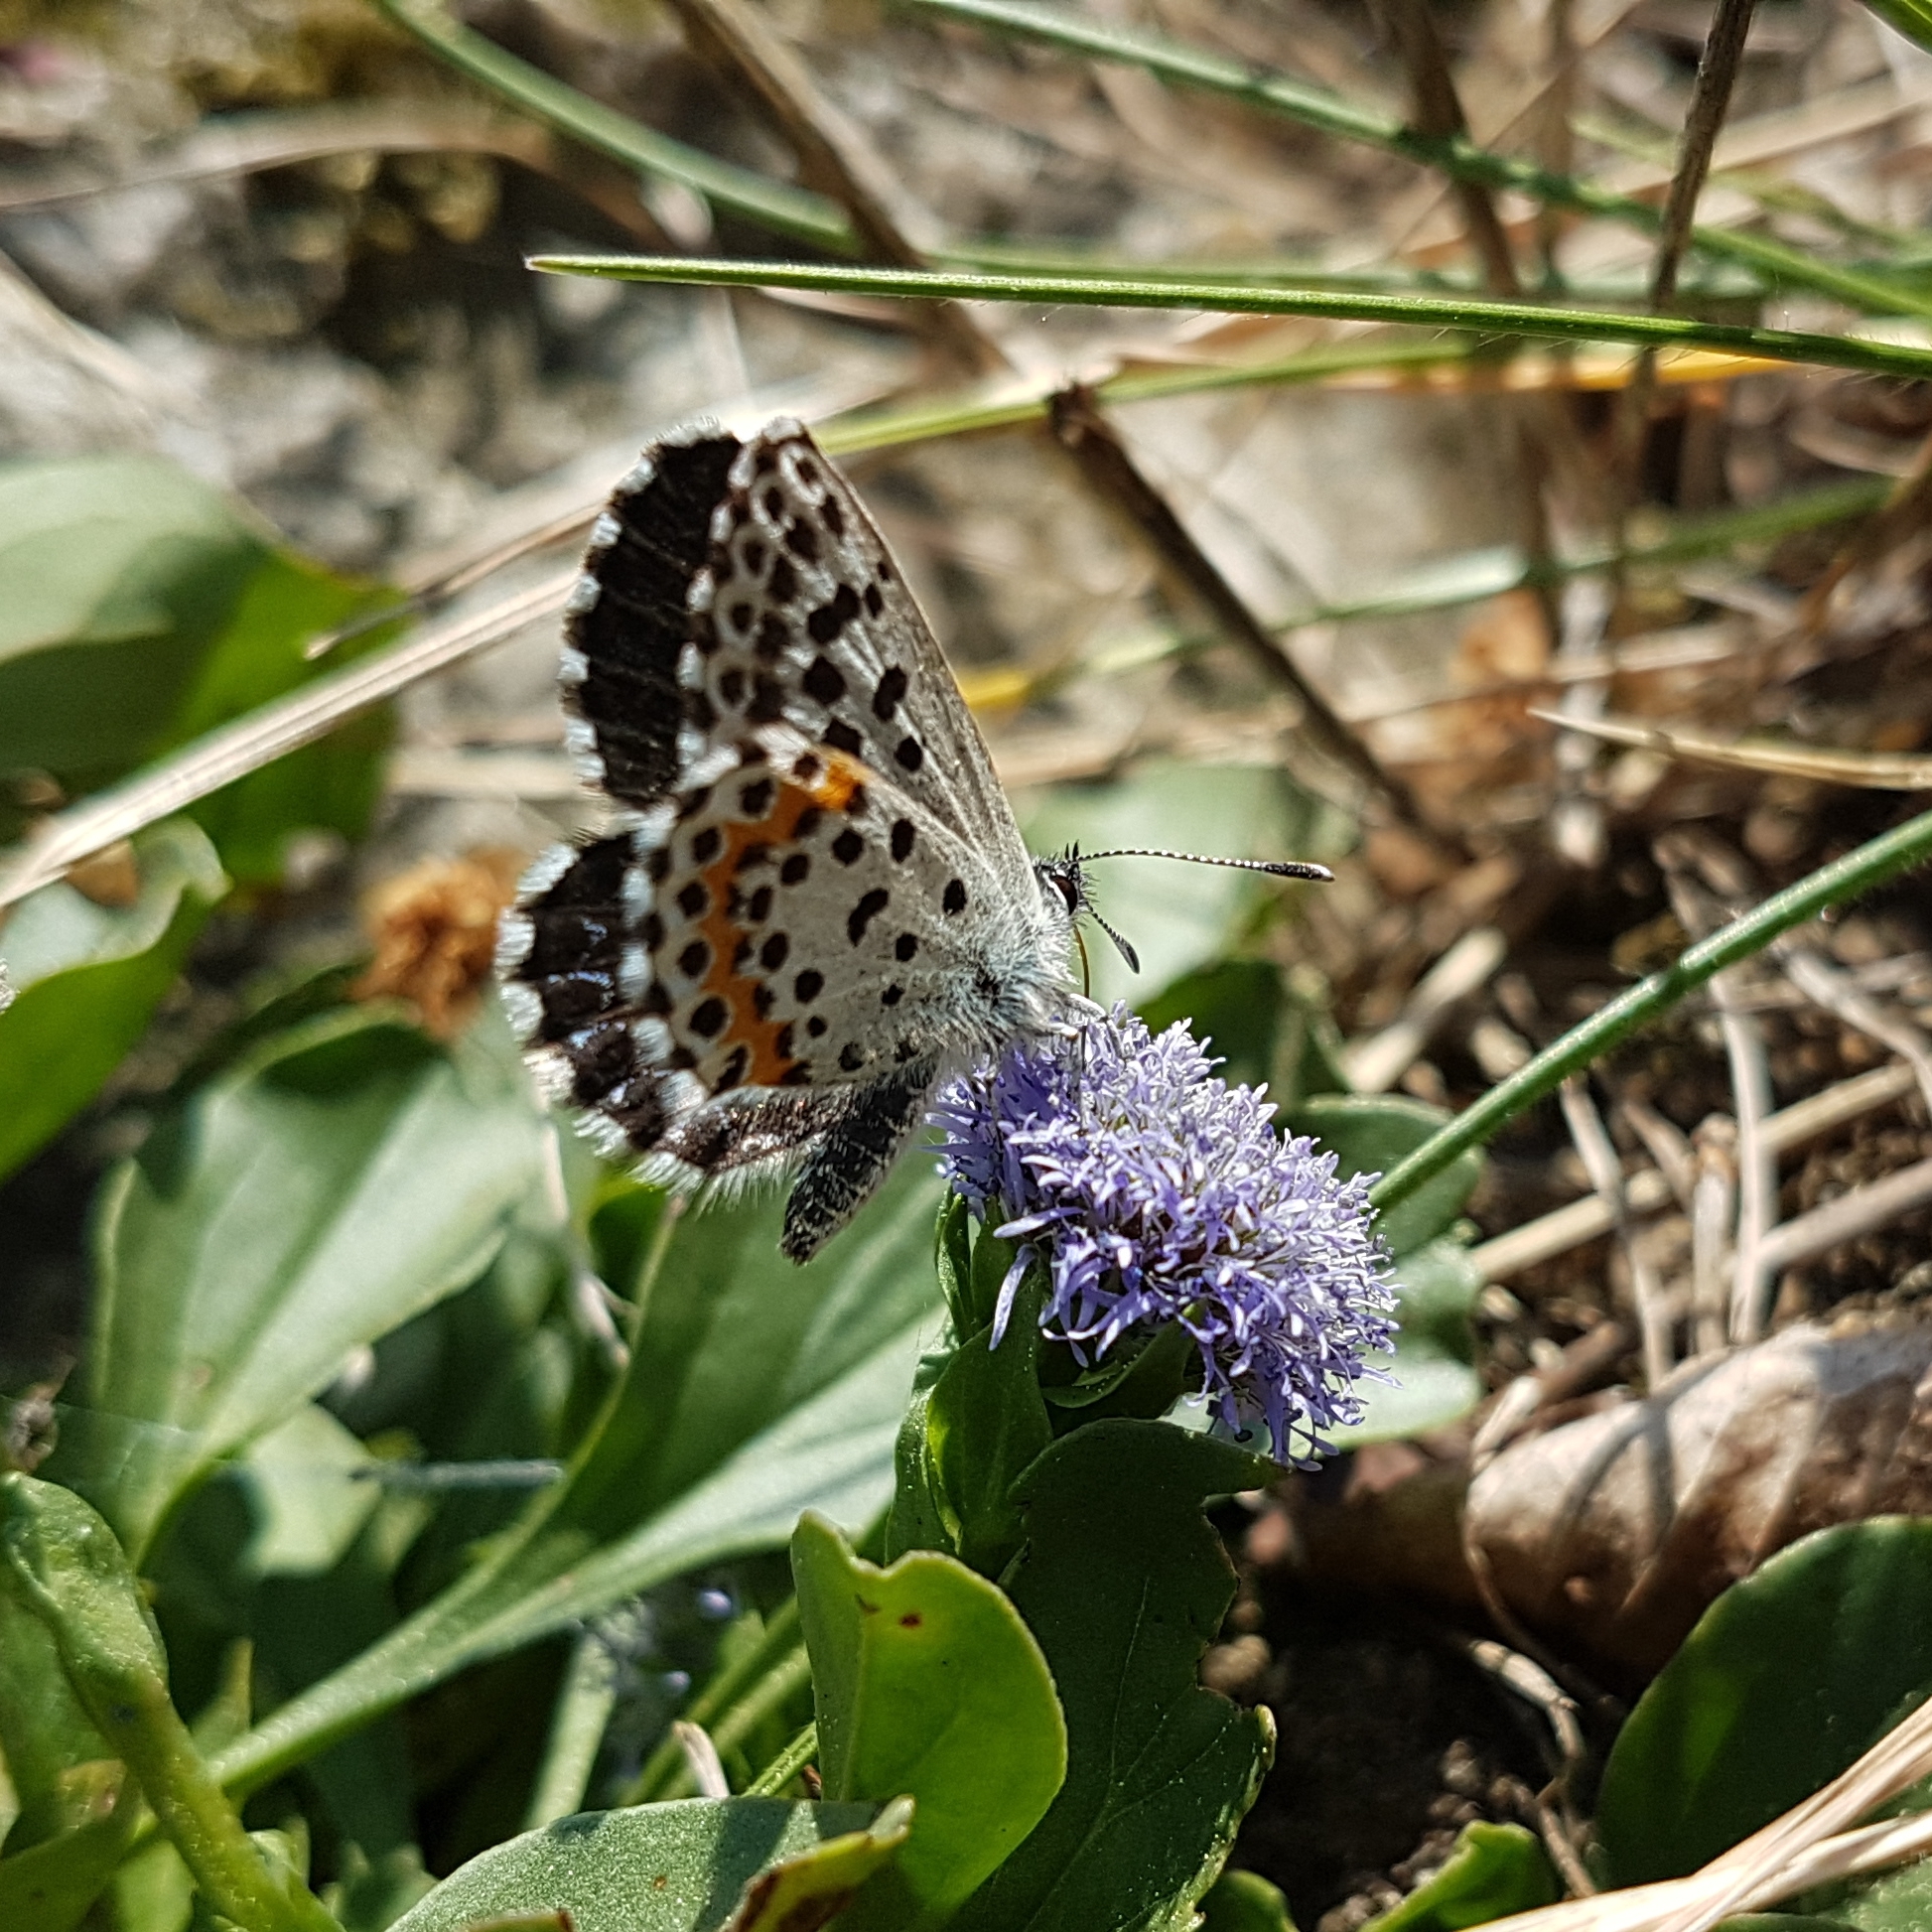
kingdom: Animalia
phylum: Arthropoda
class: Insecta
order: Lepidoptera
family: Lycaenidae
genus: Scolitantides
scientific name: Scolitantides orion
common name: Chequered blue
